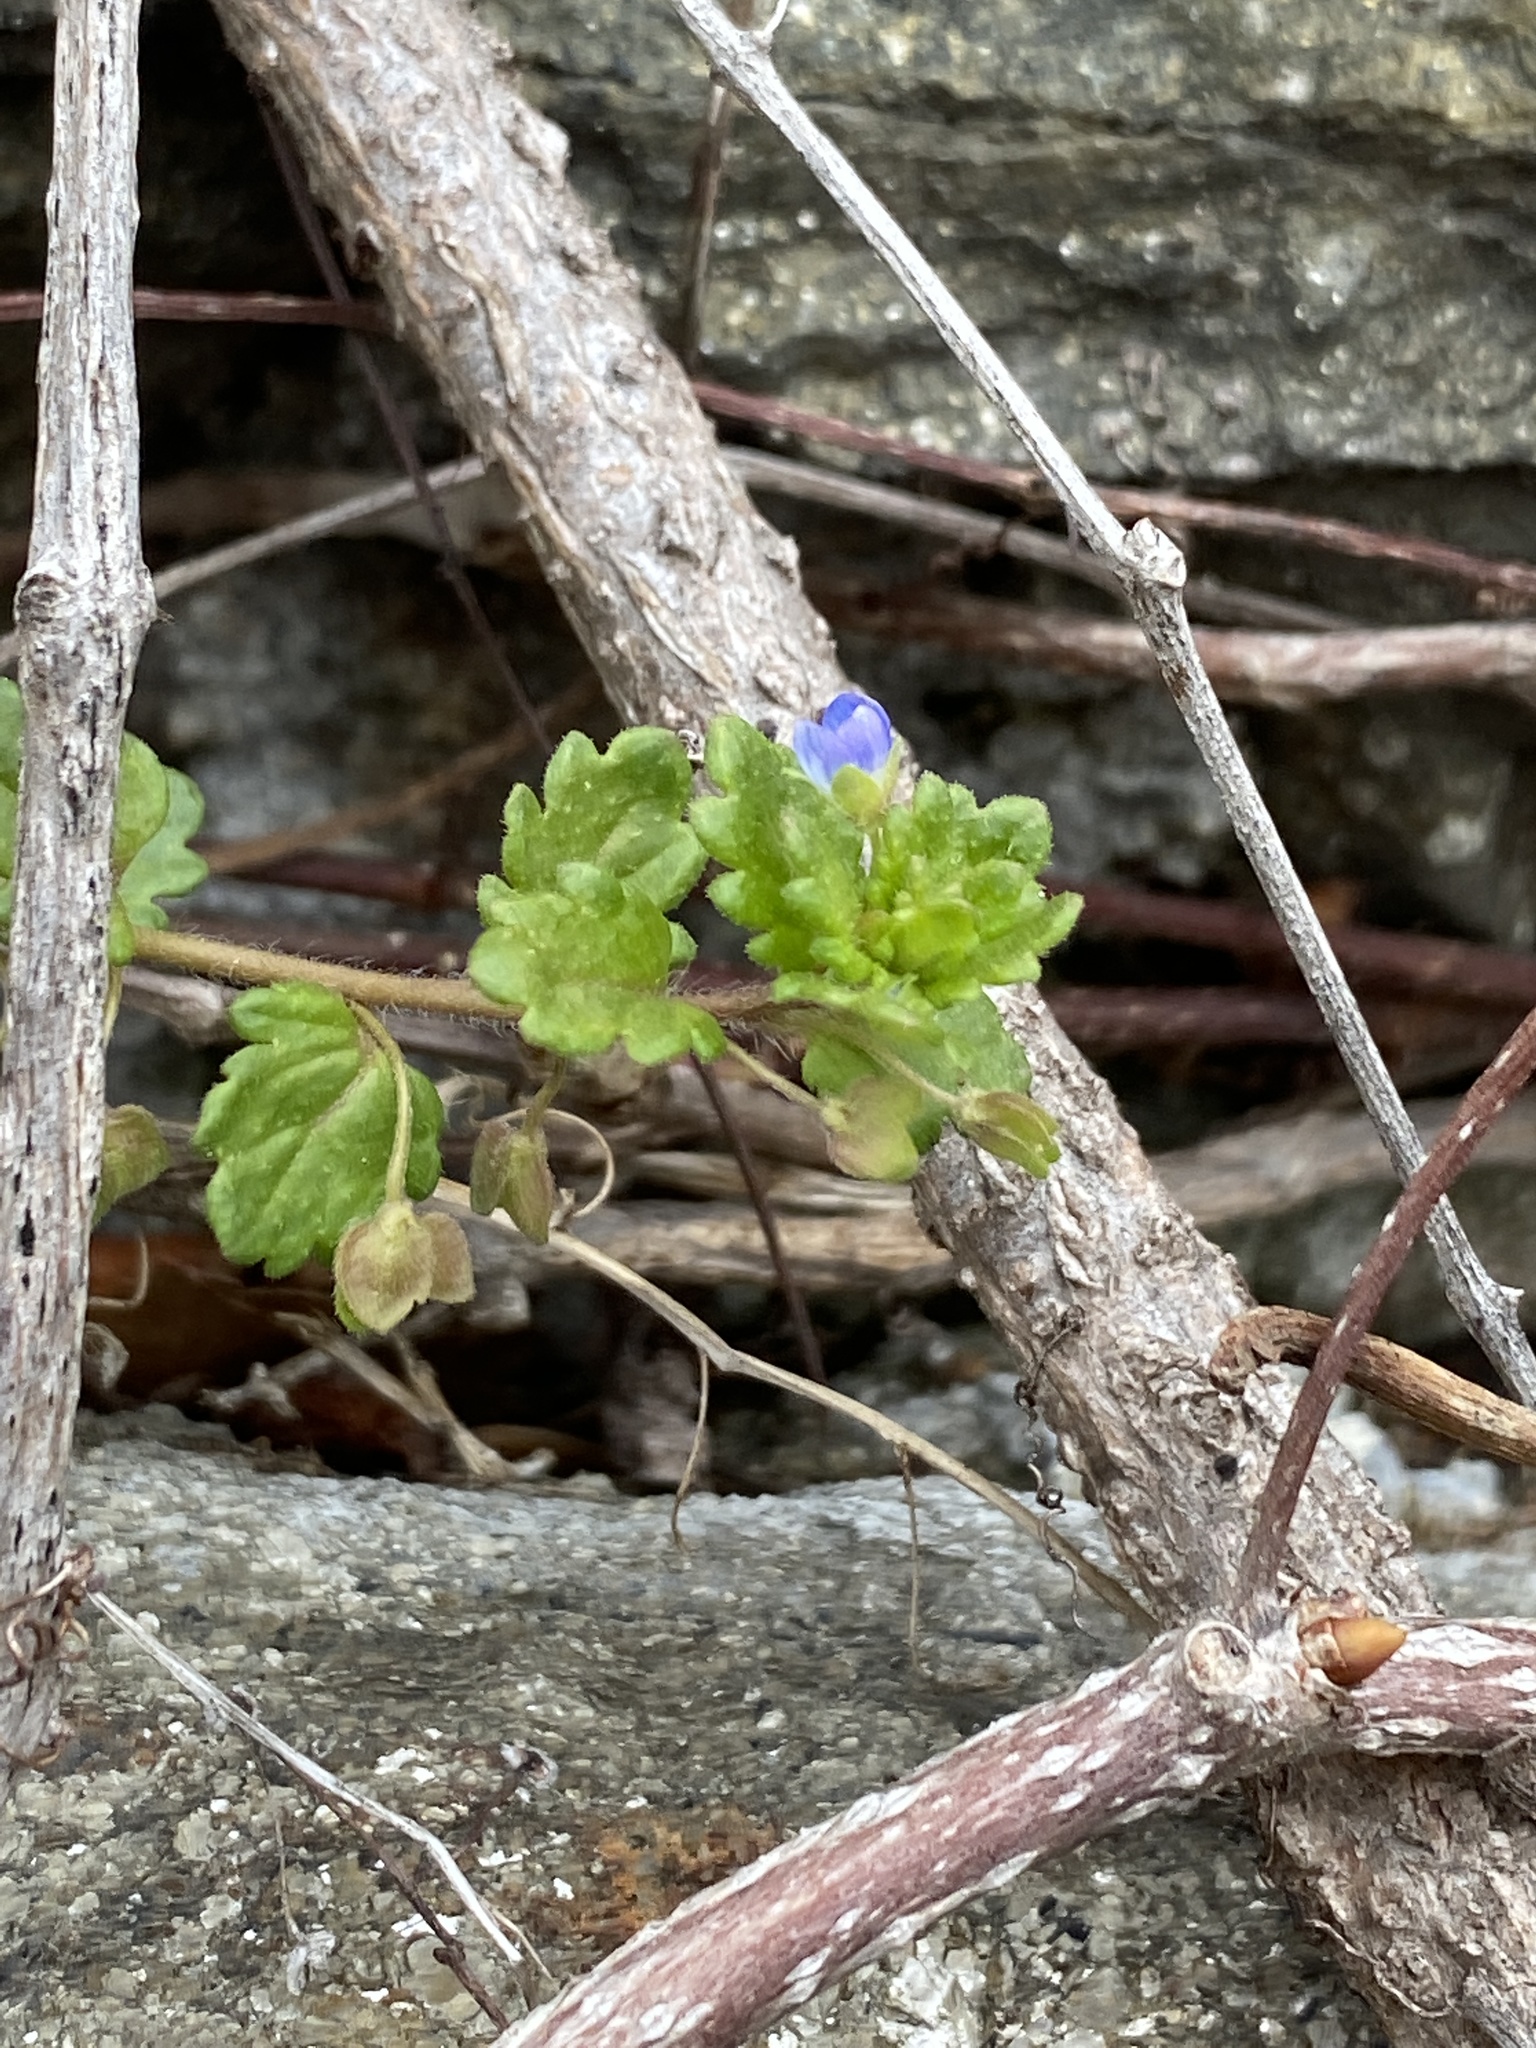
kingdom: Plantae
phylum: Tracheophyta
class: Magnoliopsida
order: Lamiales
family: Plantaginaceae
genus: Veronica
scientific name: Veronica polita
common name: Grey field-speedwell
